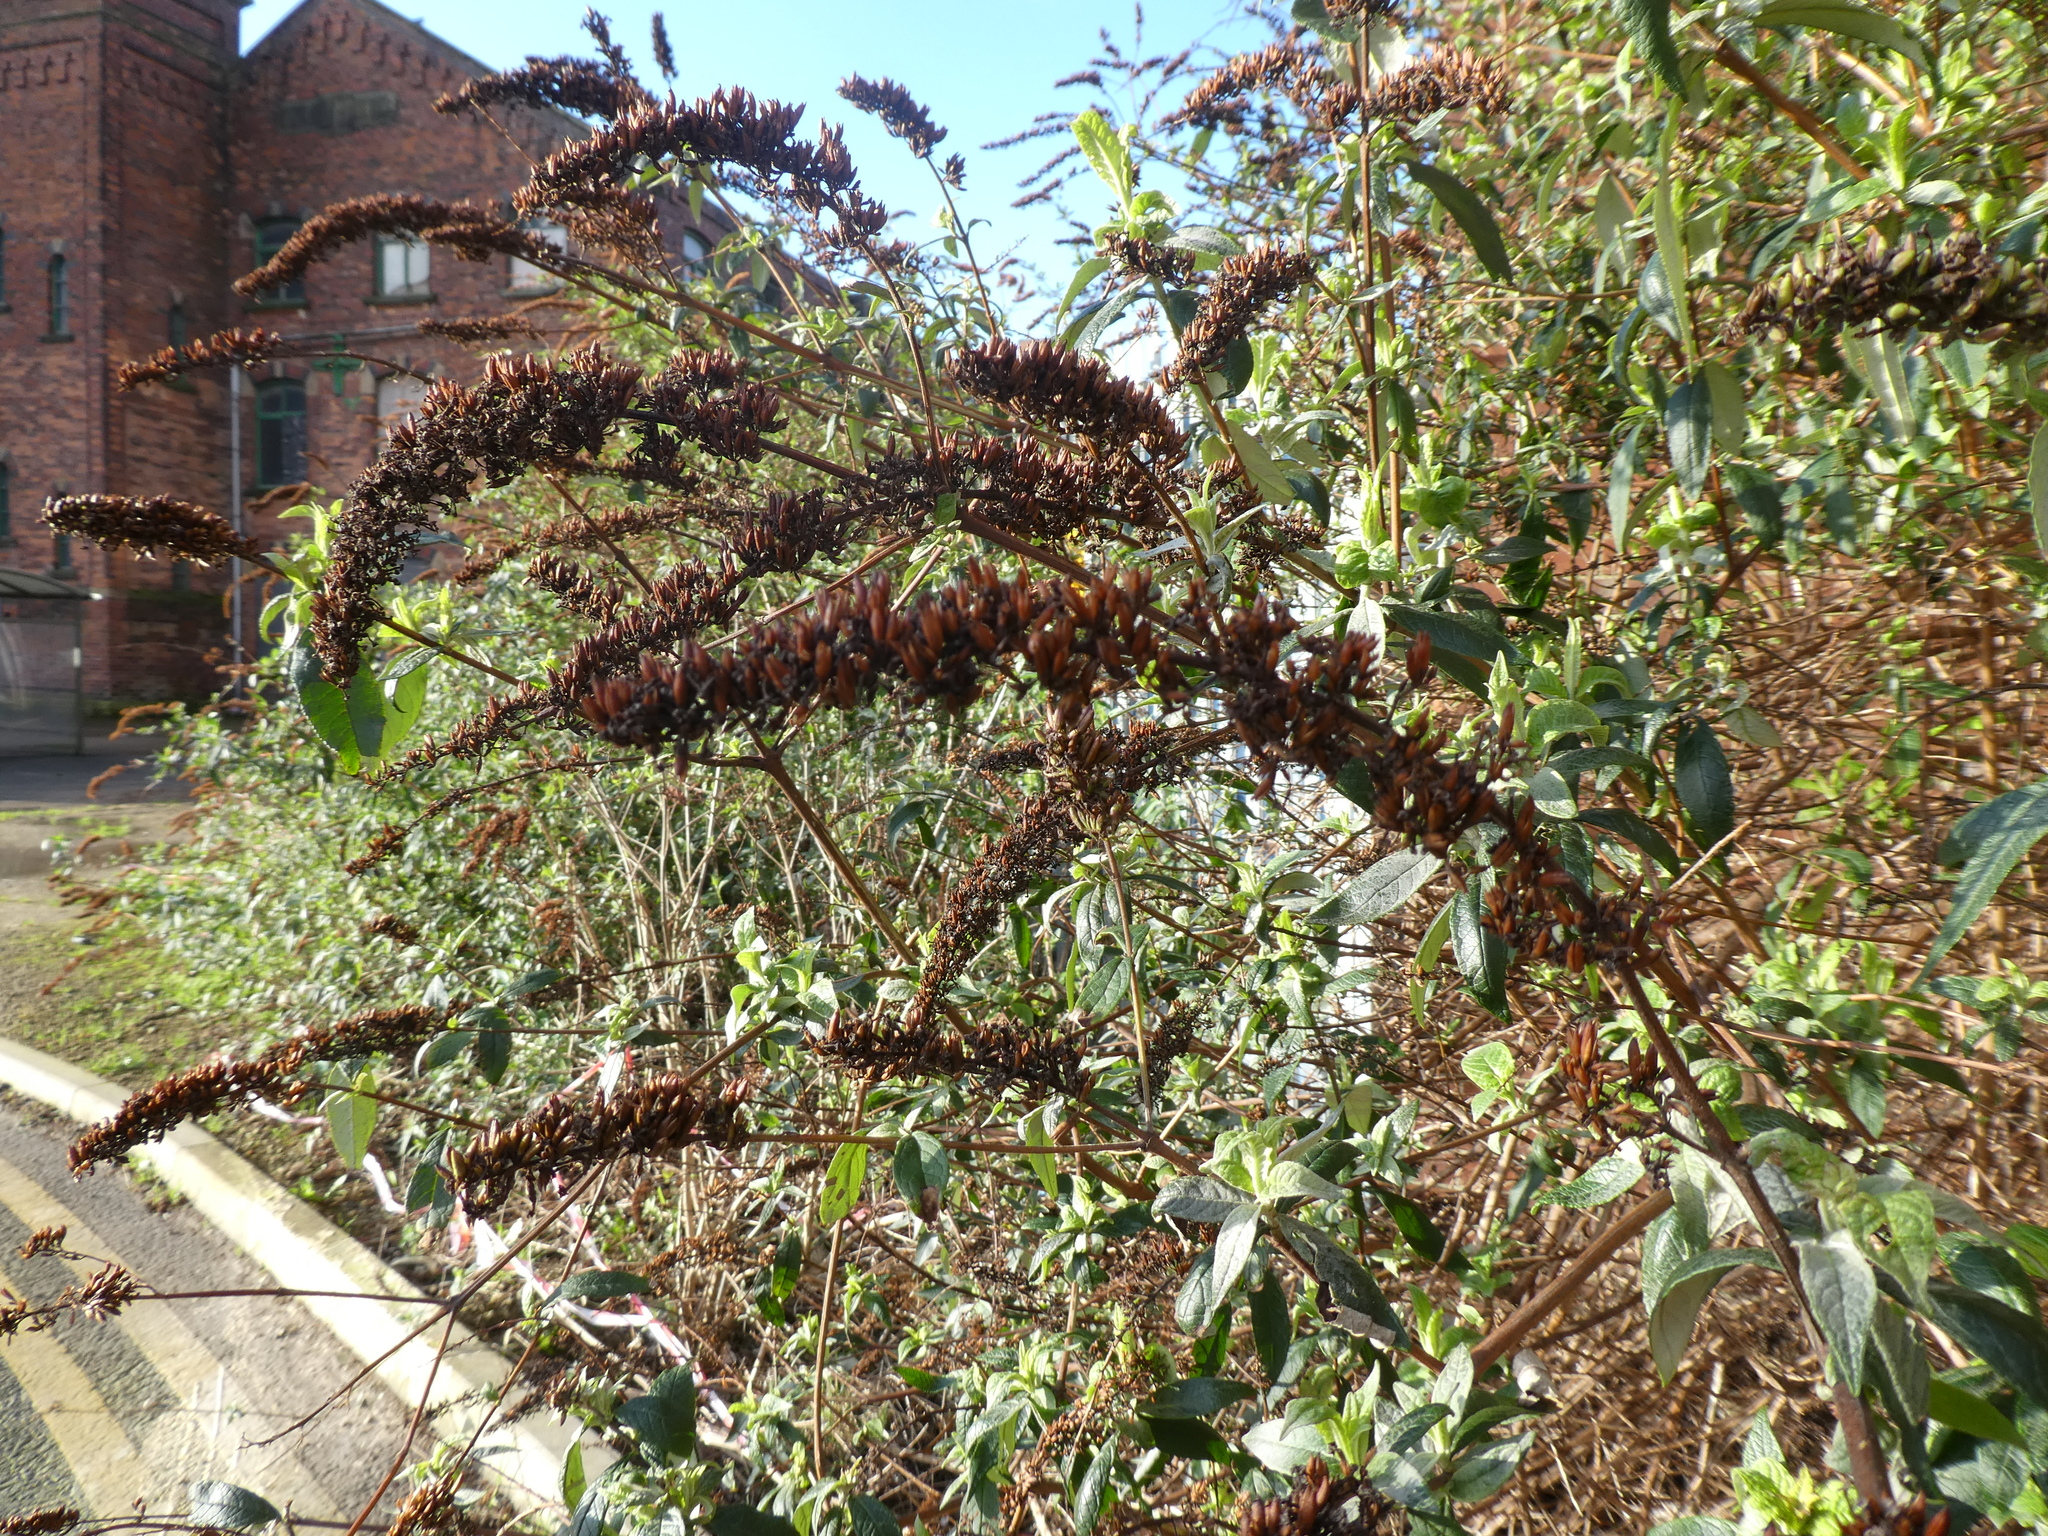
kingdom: Plantae
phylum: Tracheophyta
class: Magnoliopsida
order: Lamiales
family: Scrophulariaceae
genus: Buddleja
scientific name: Buddleja davidii
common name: Butterfly-bush
